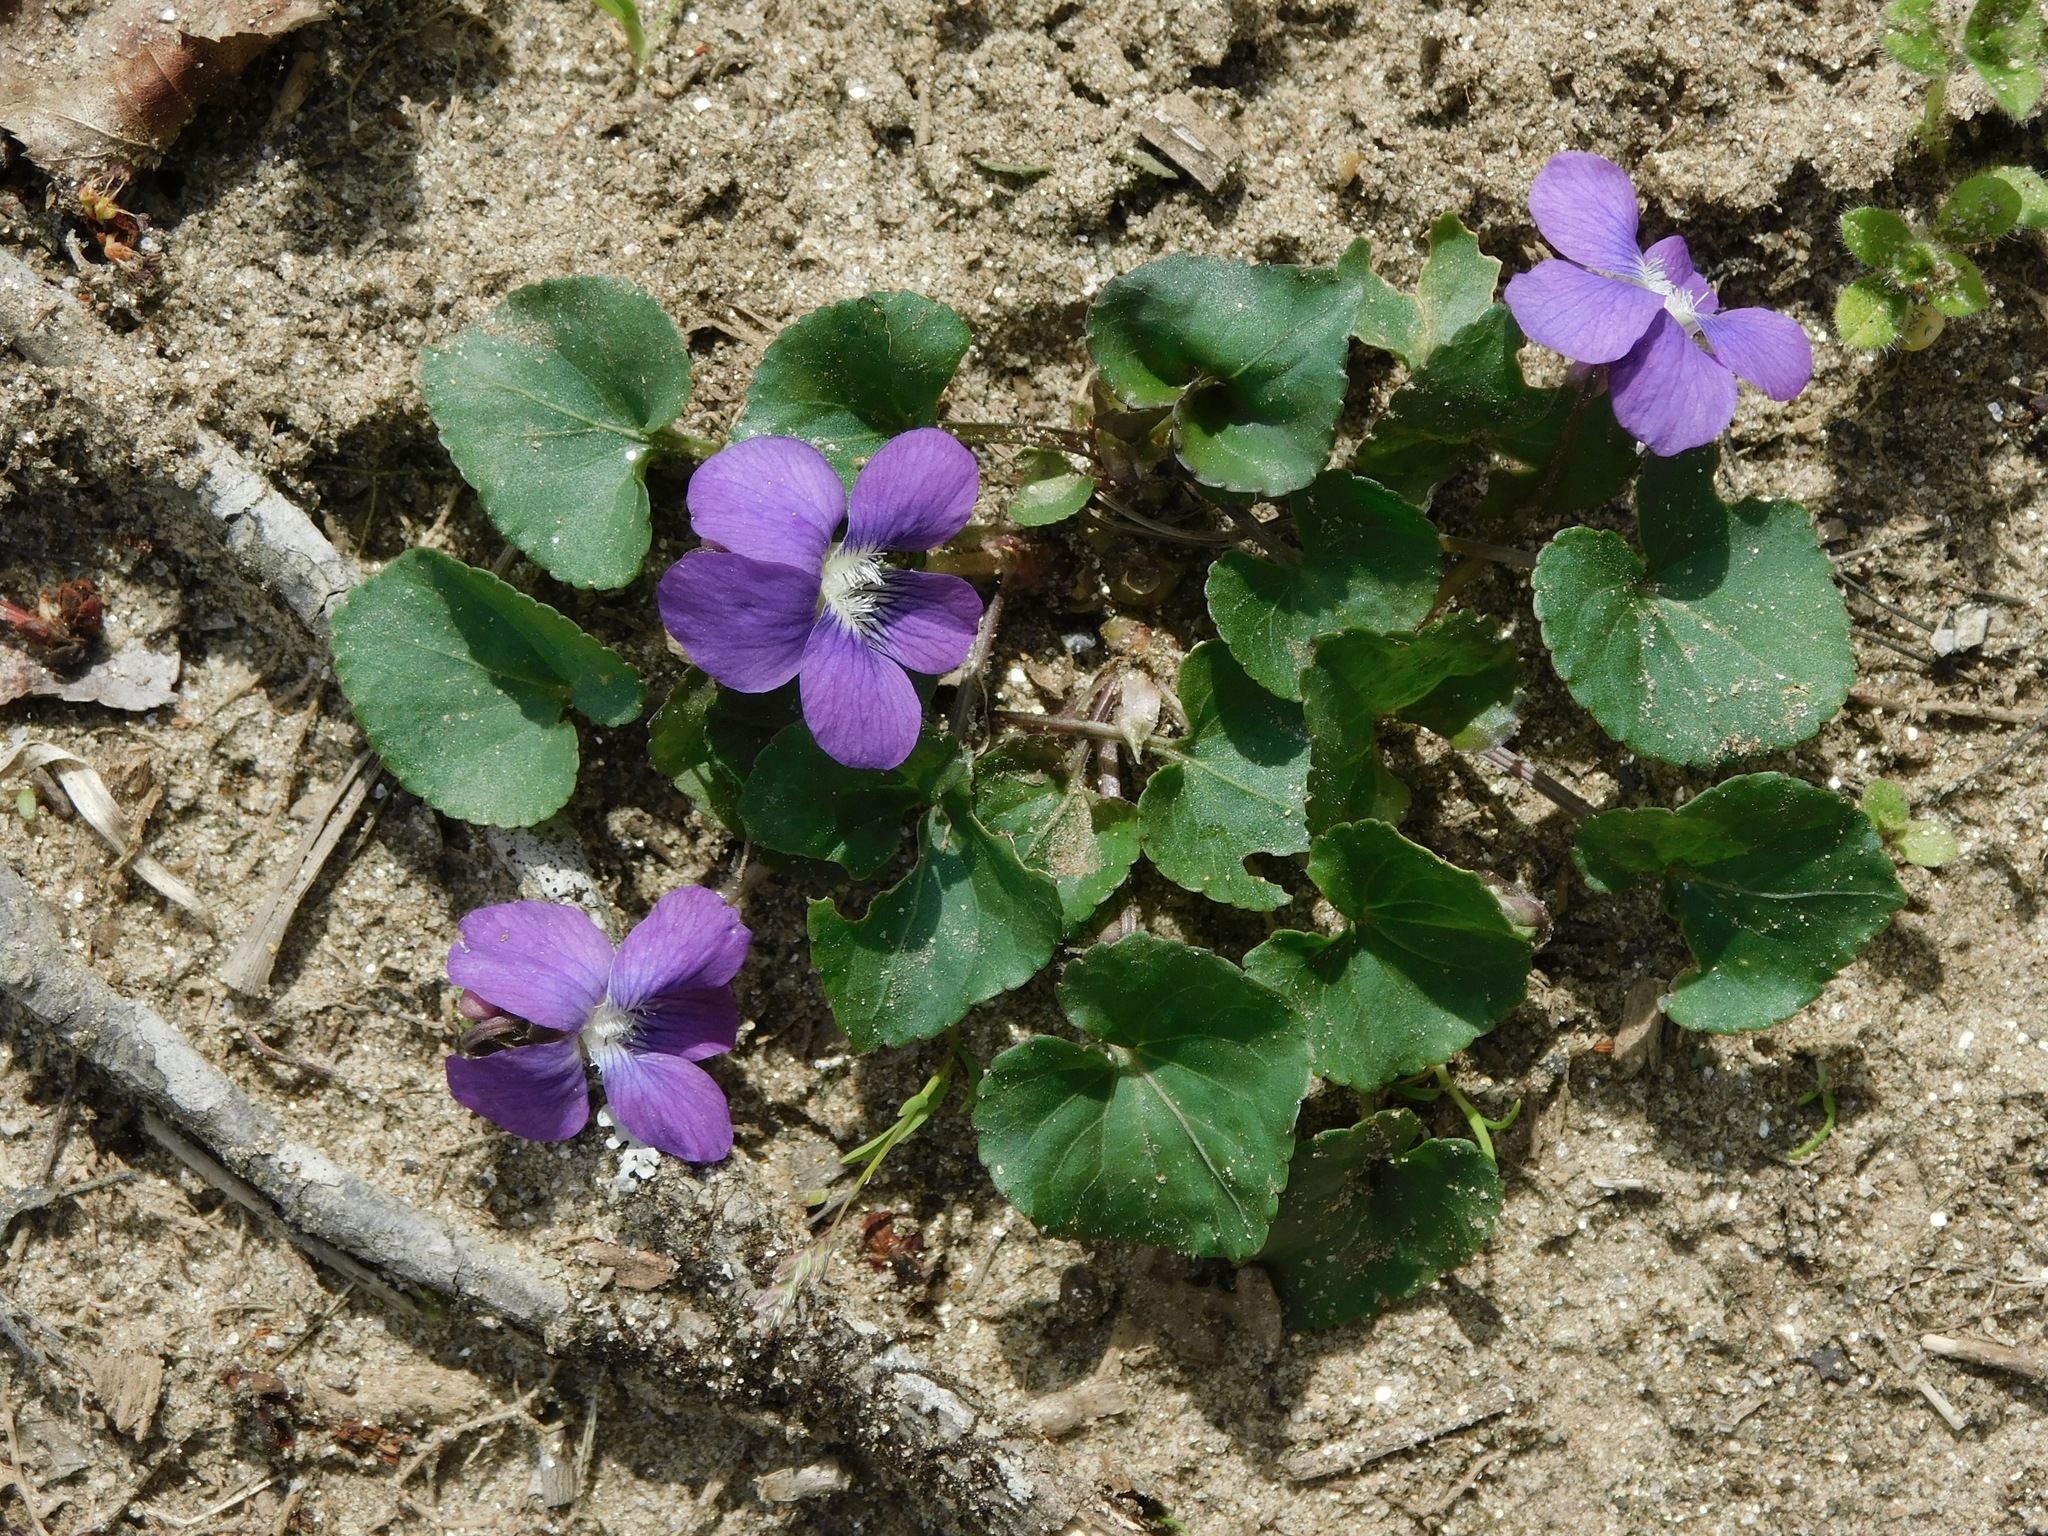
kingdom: Plantae
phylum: Tracheophyta
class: Magnoliopsida
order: Malpighiales
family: Violaceae
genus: Viola
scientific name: Viola cucullata
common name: Marsh blue violet
